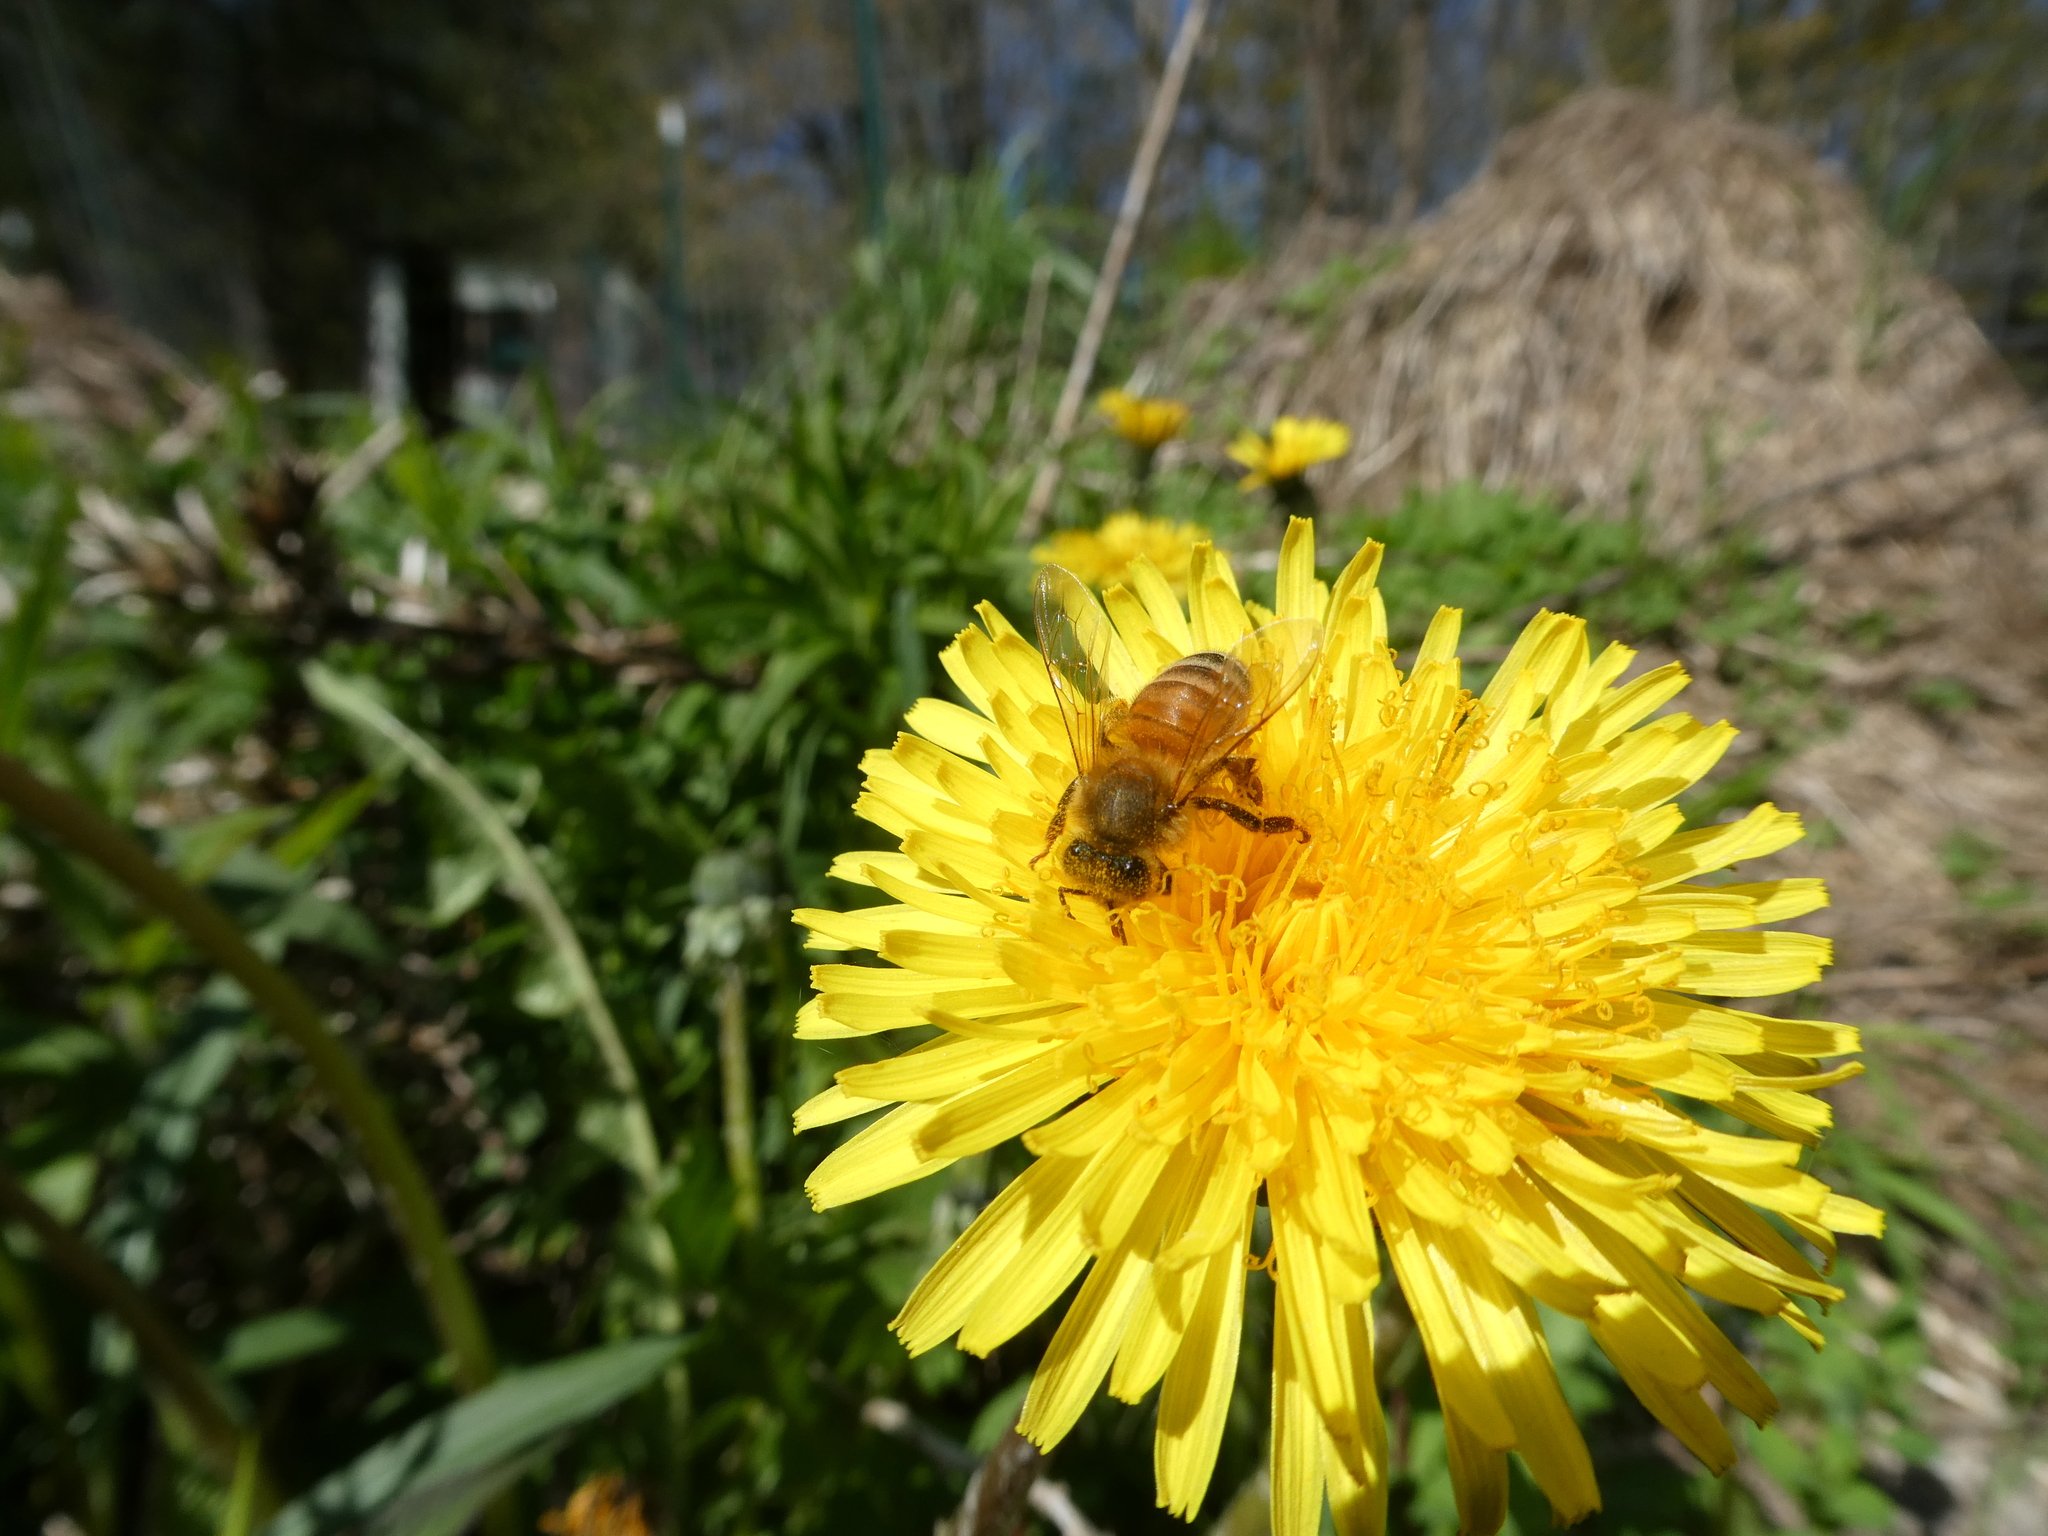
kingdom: Animalia
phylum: Arthropoda
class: Insecta
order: Hymenoptera
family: Apidae
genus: Apis
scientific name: Apis mellifera
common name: Honey bee
